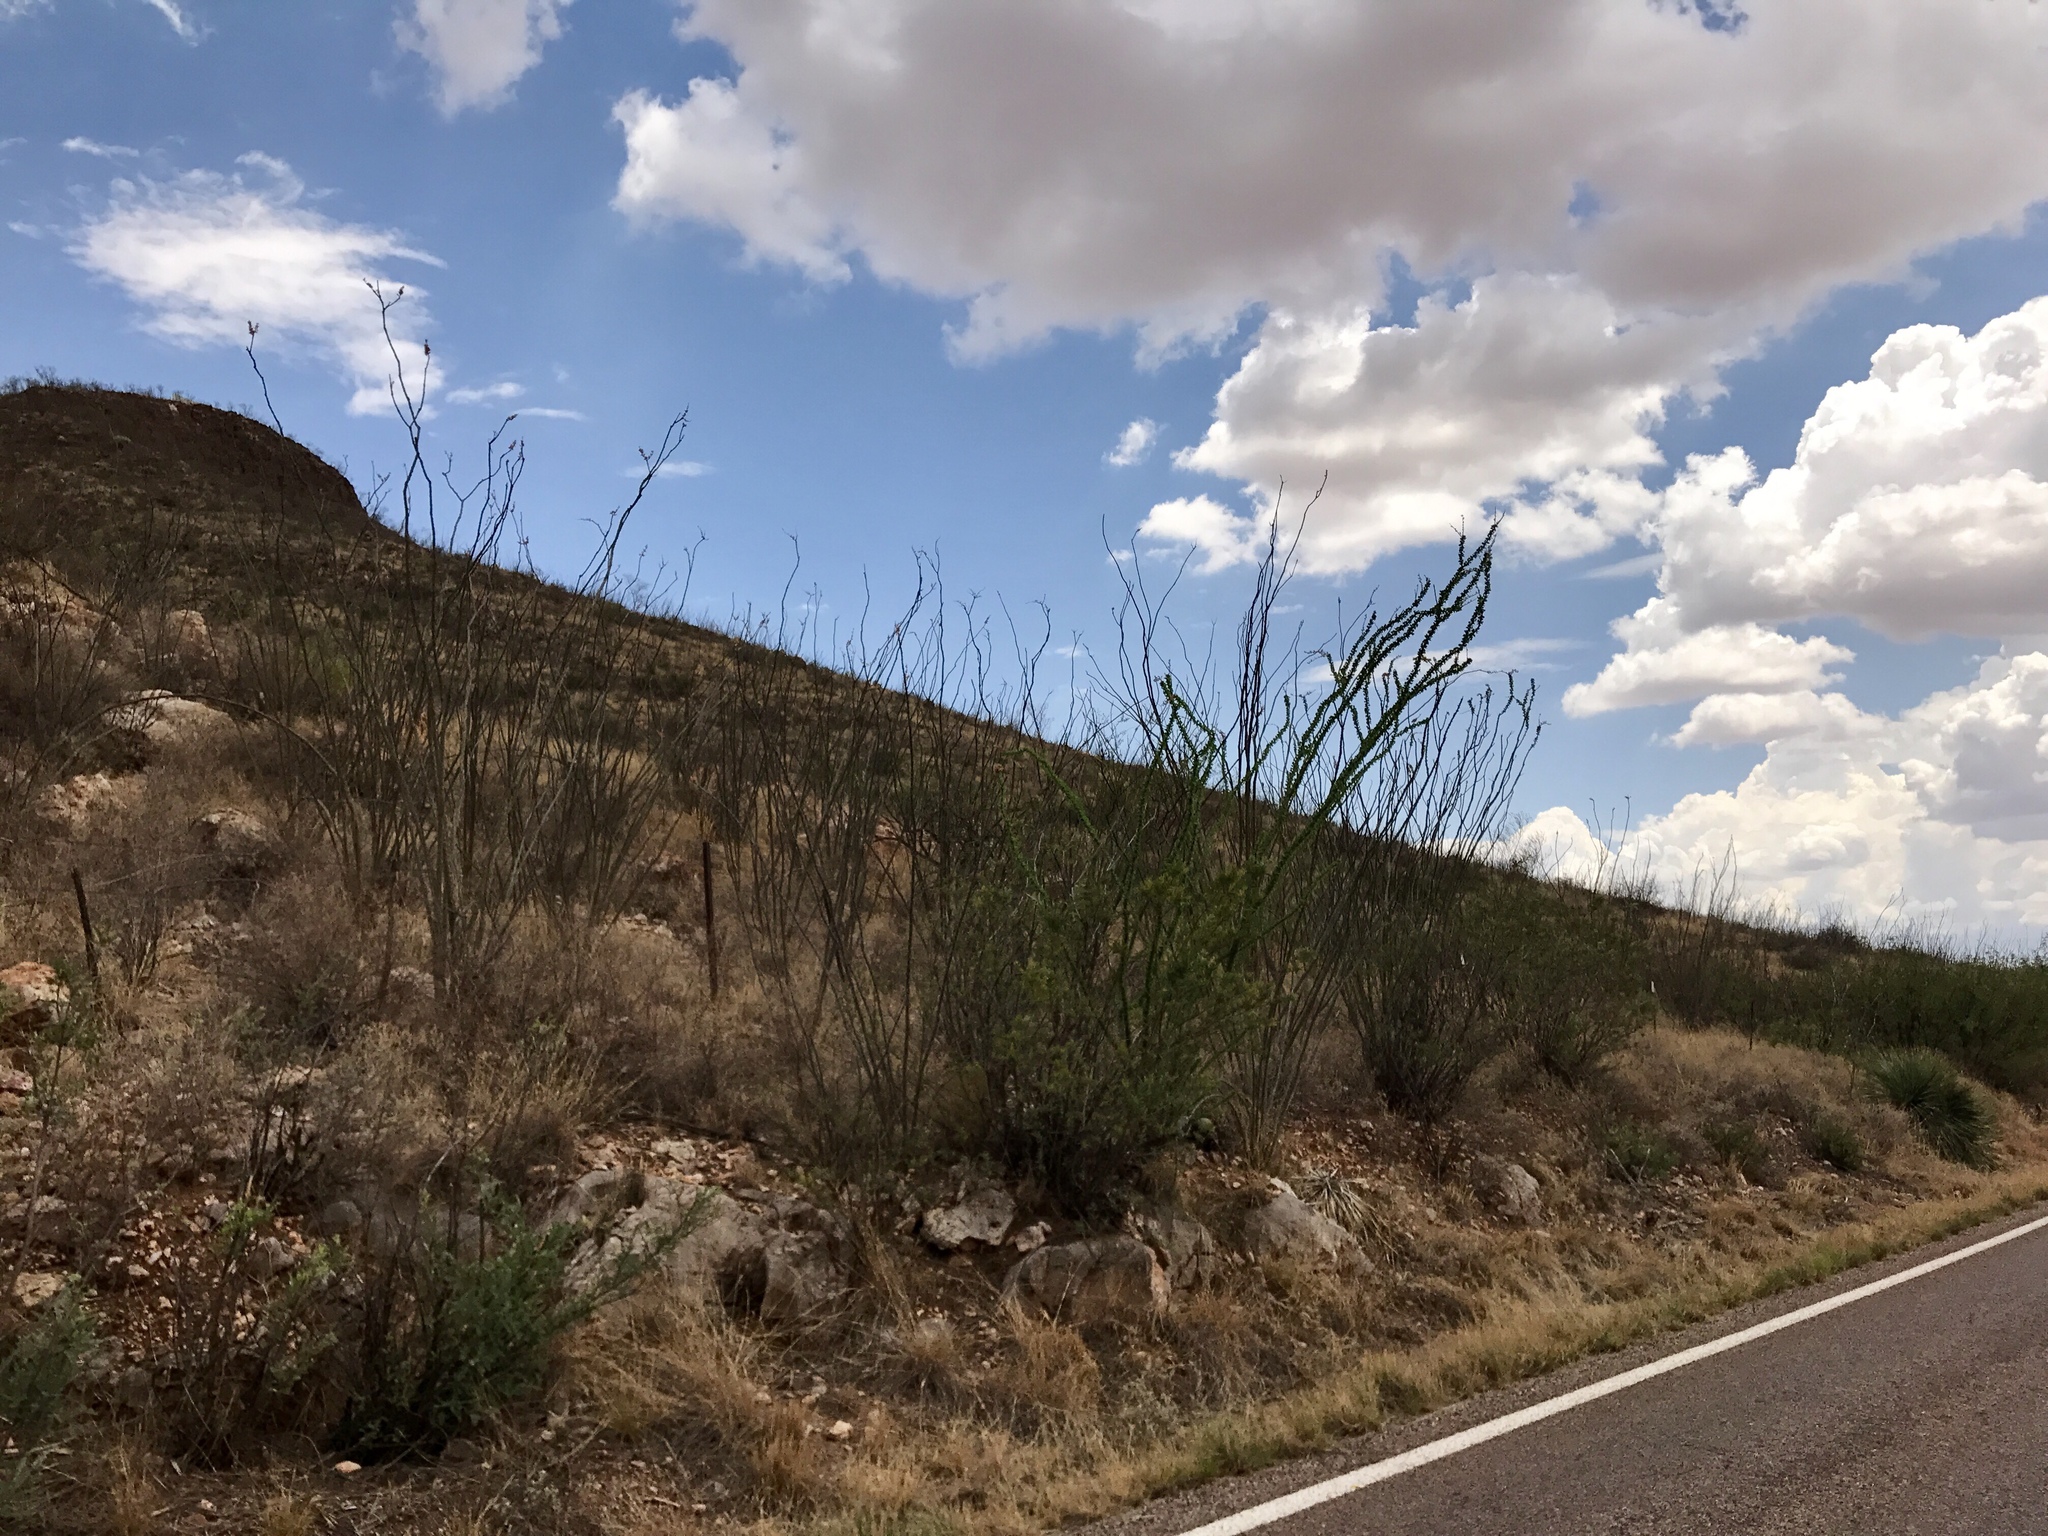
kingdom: Plantae
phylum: Tracheophyta
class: Magnoliopsida
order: Ericales
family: Fouquieriaceae
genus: Fouquieria
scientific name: Fouquieria splendens
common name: Vine-cactus
